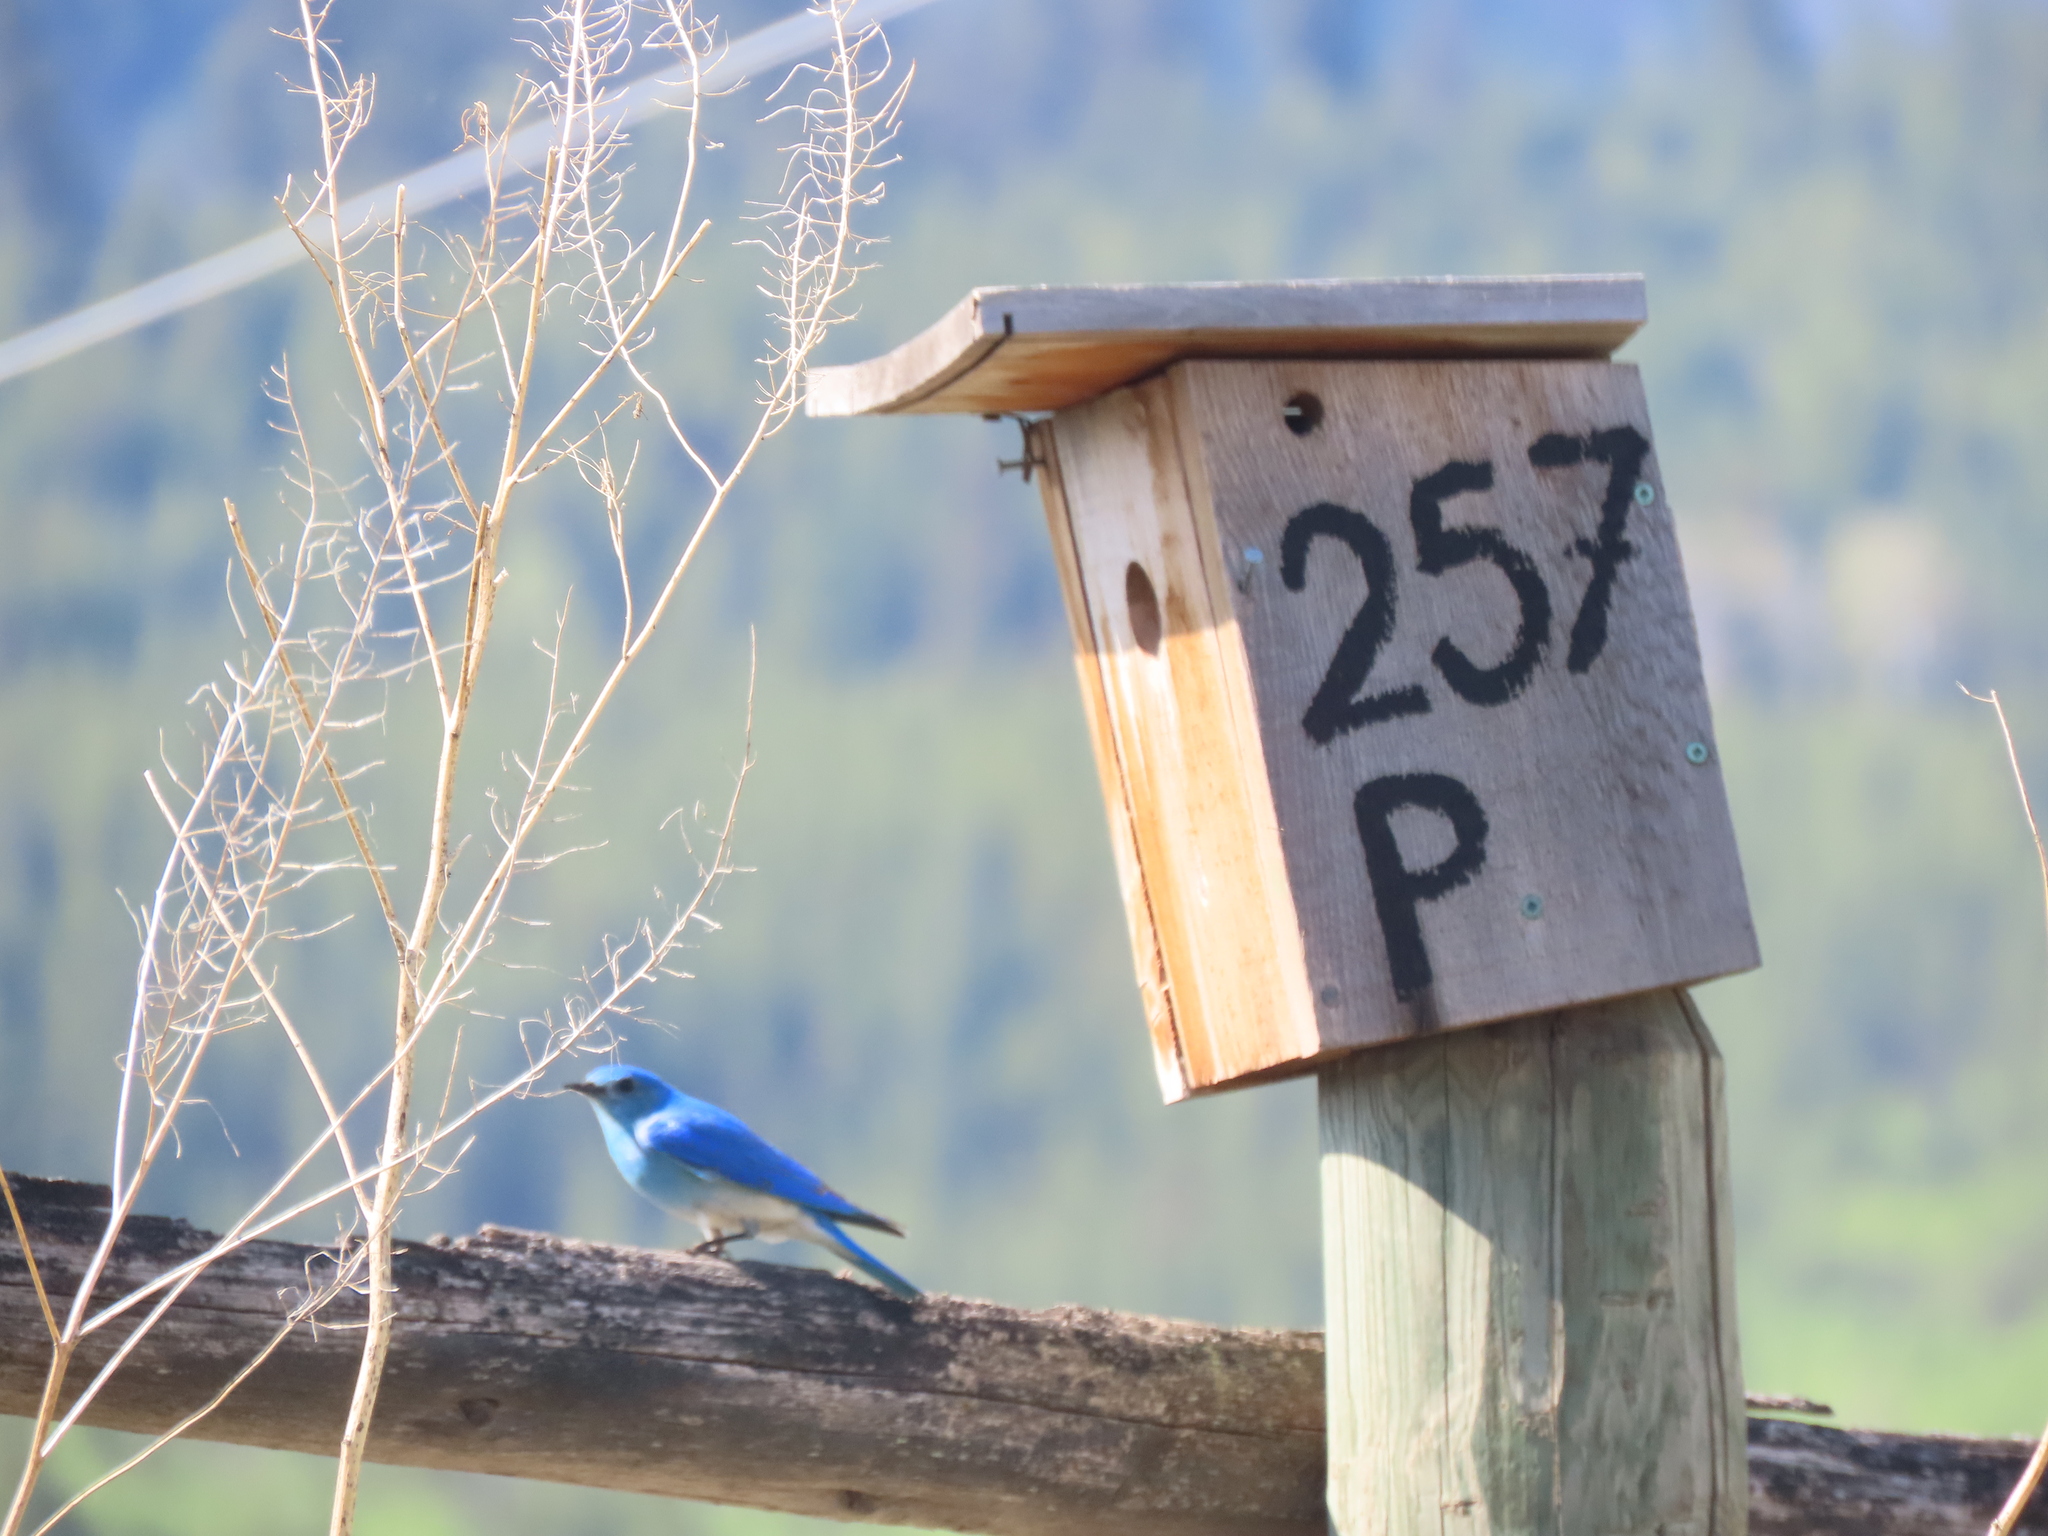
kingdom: Animalia
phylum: Chordata
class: Aves
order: Passeriformes
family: Turdidae
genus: Sialia
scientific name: Sialia currucoides
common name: Mountain bluebird
